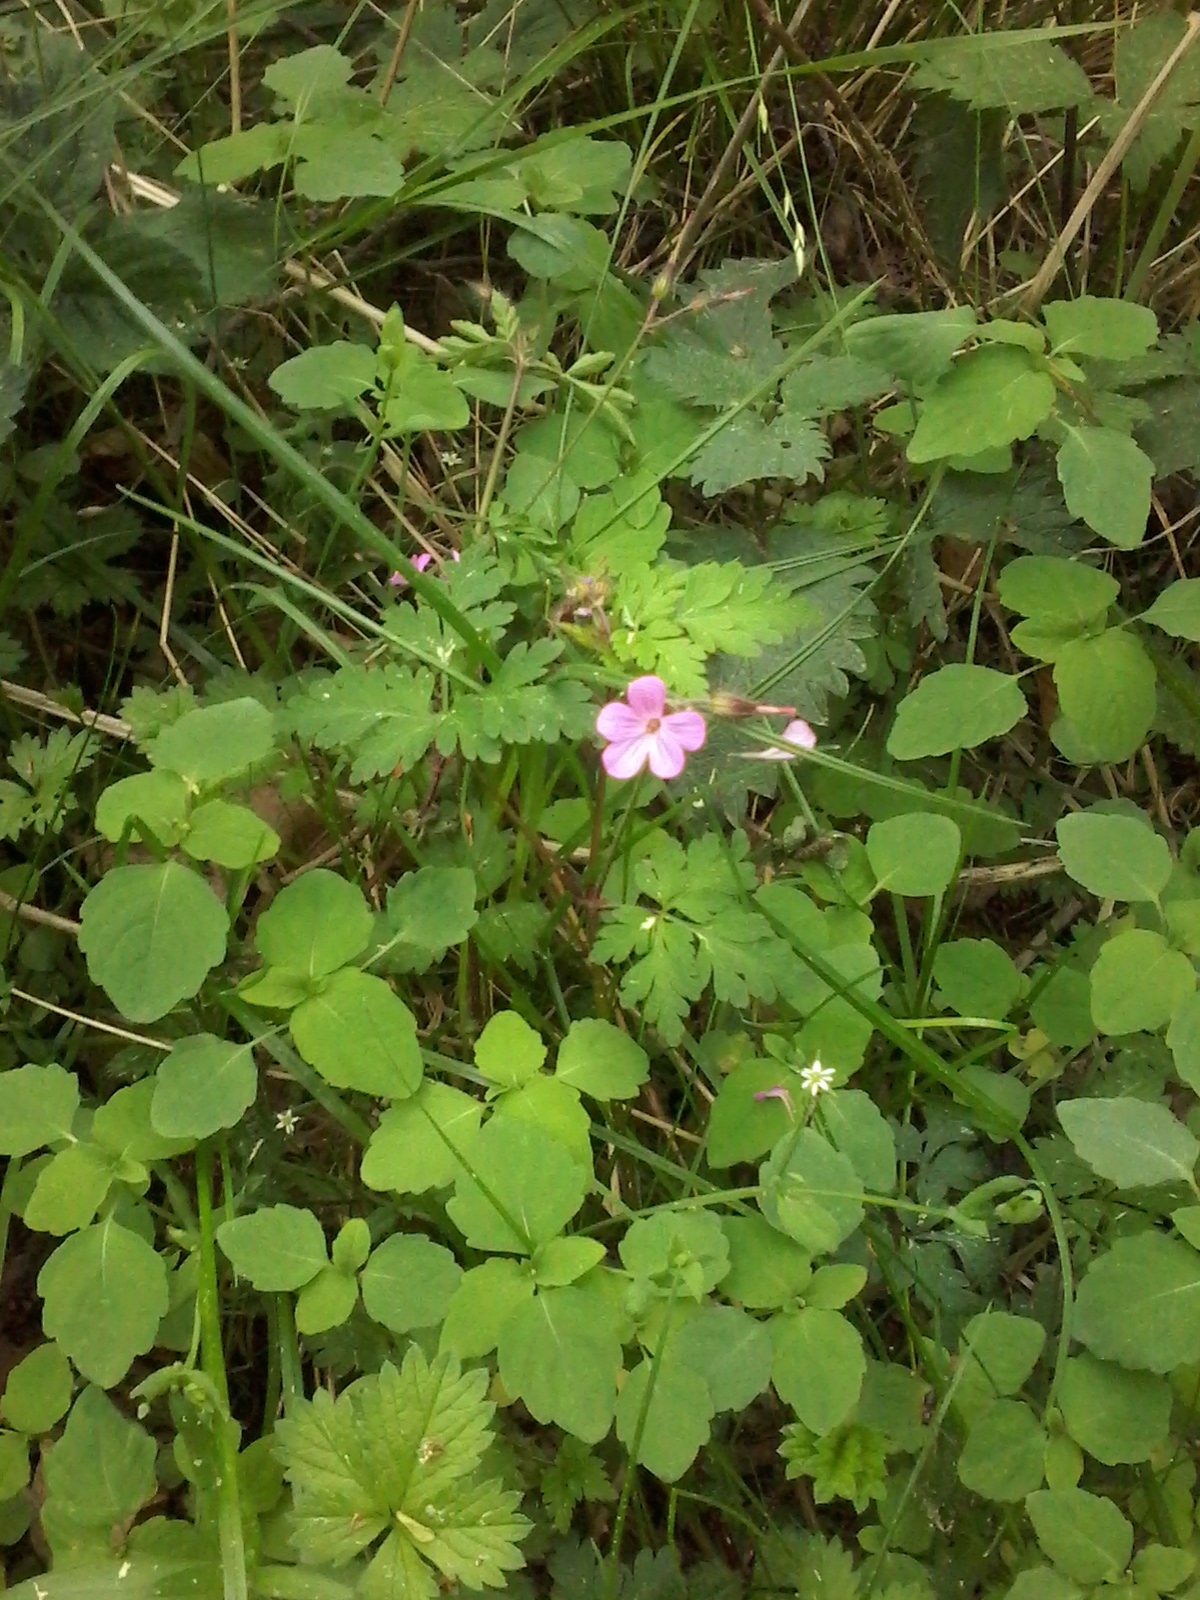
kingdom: Plantae
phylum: Tracheophyta
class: Magnoliopsida
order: Geraniales
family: Geraniaceae
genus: Geranium
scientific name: Geranium robertianum
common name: Herb-robert
